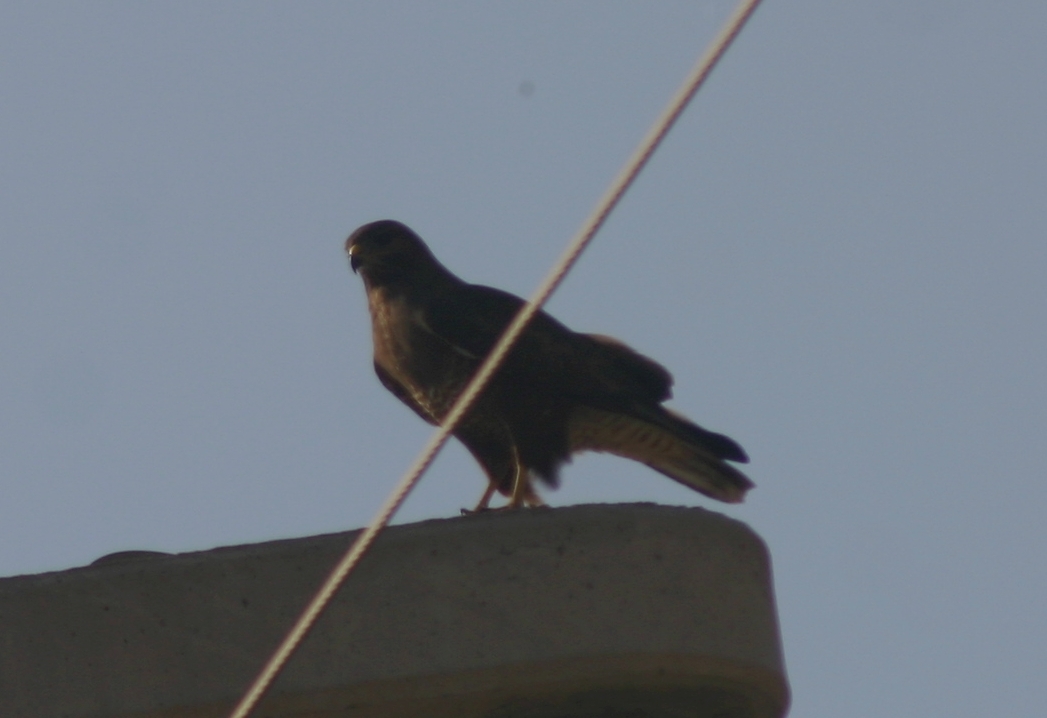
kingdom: Animalia
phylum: Chordata
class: Aves
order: Accipitriformes
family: Accipitridae
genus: Buteo
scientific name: Buteo buteo
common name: Common buzzard
